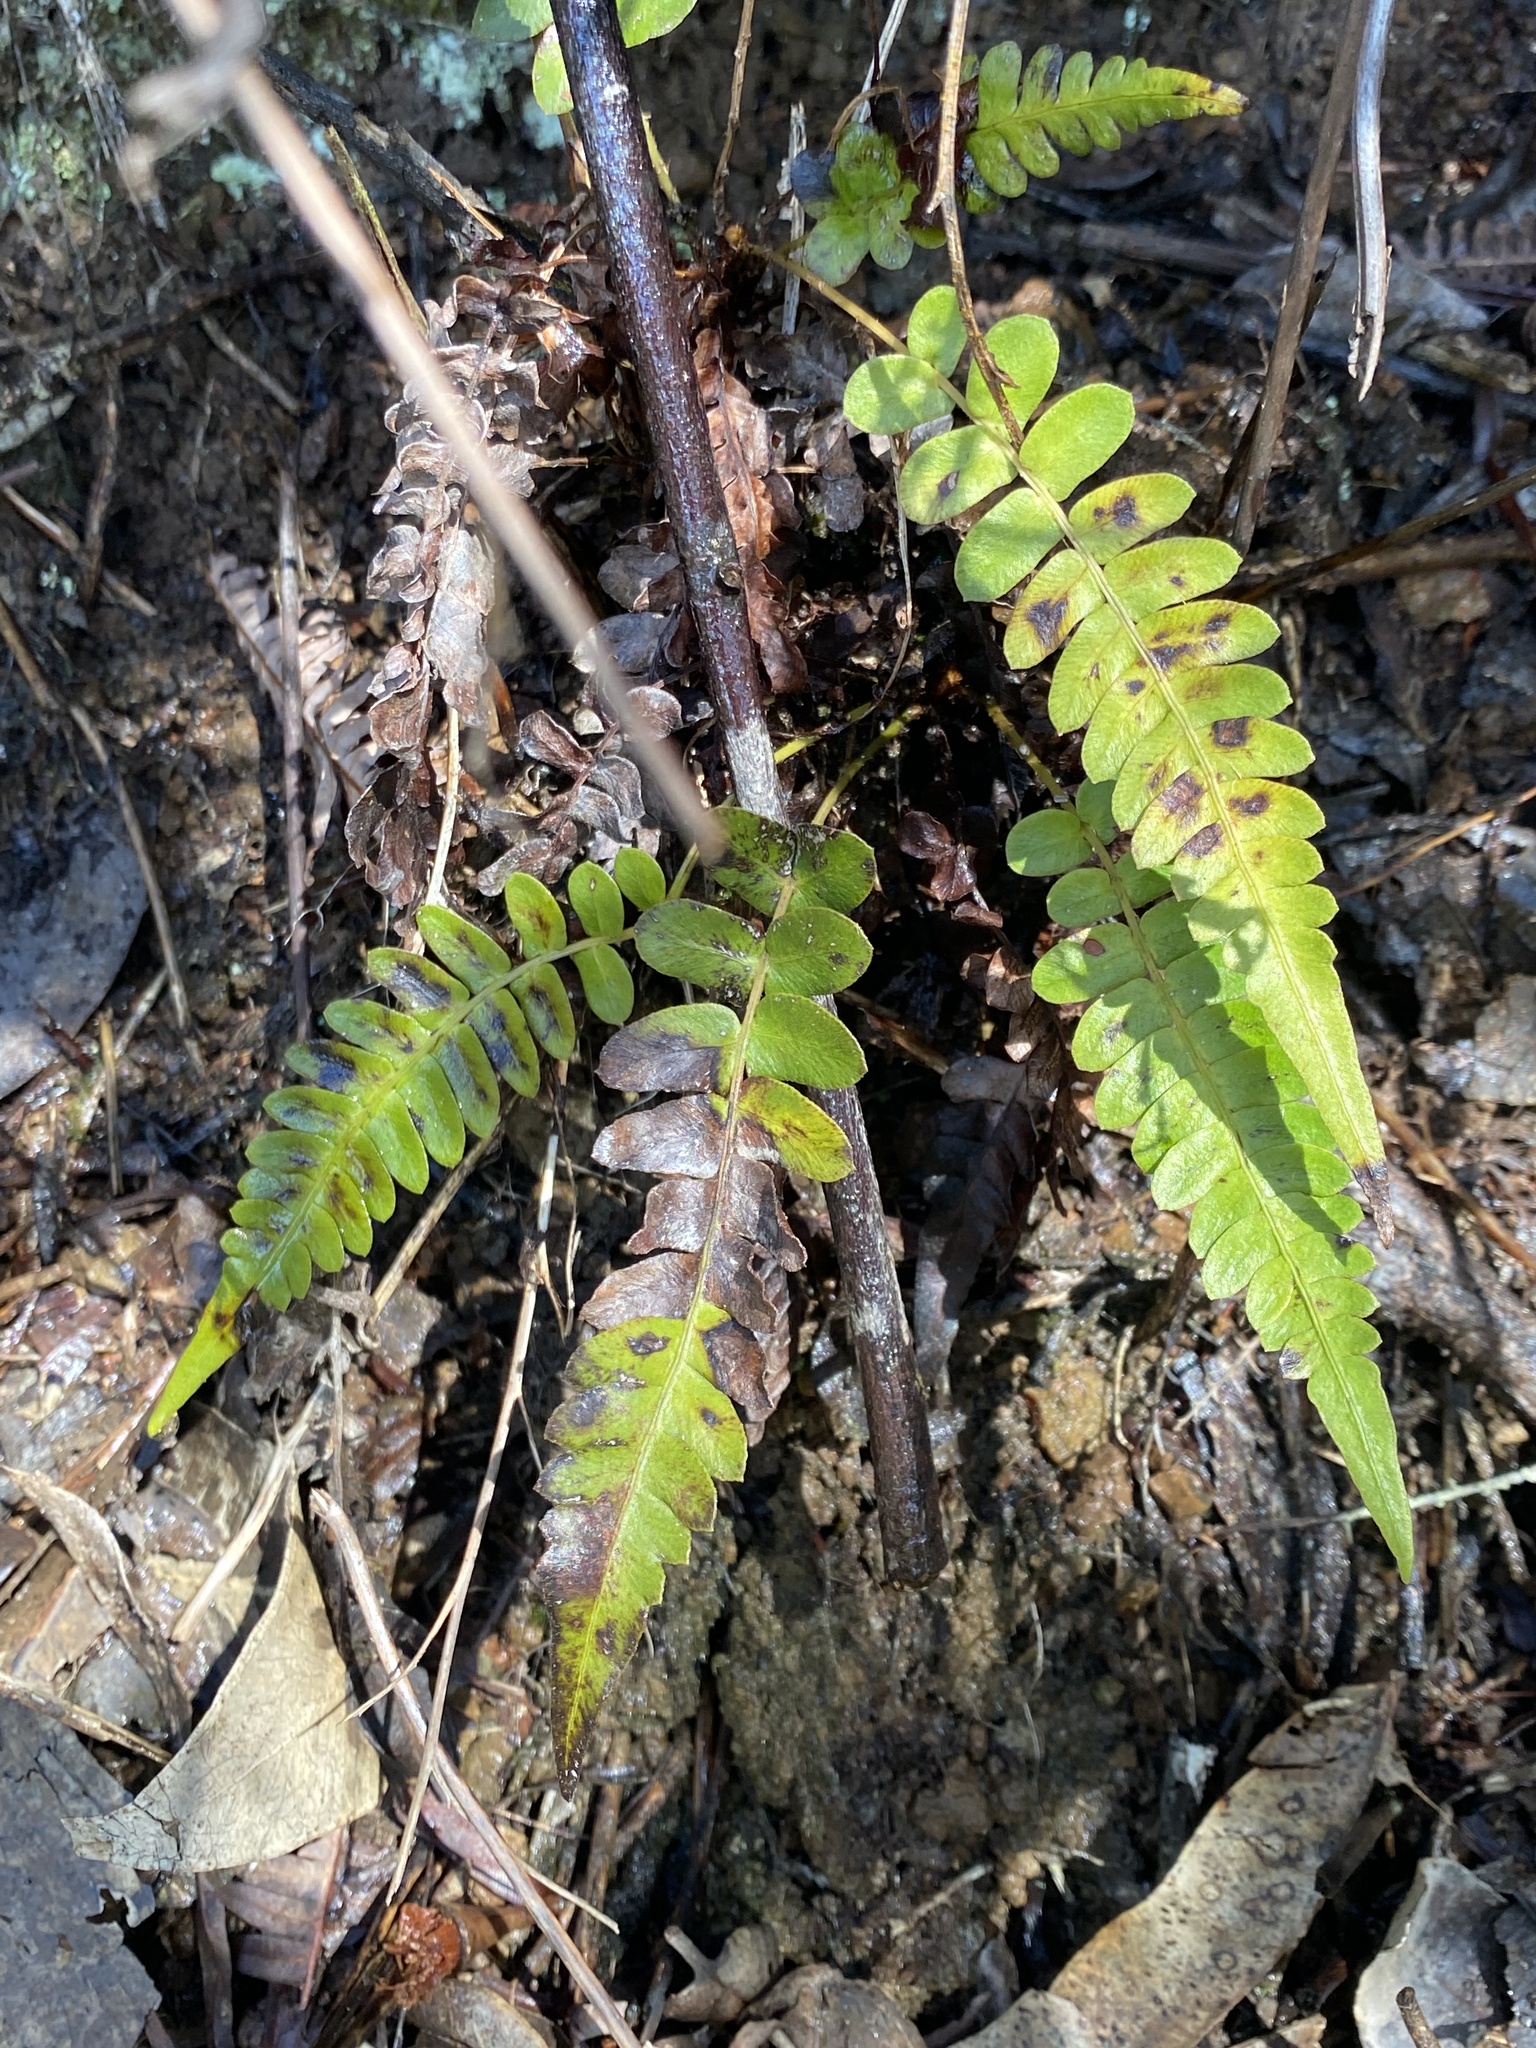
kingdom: Plantae
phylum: Tracheophyta
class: Polypodiopsida
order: Polypodiales
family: Blechnaceae
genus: Blechnum
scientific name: Blechnum appendiculatum
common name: Palm fern
